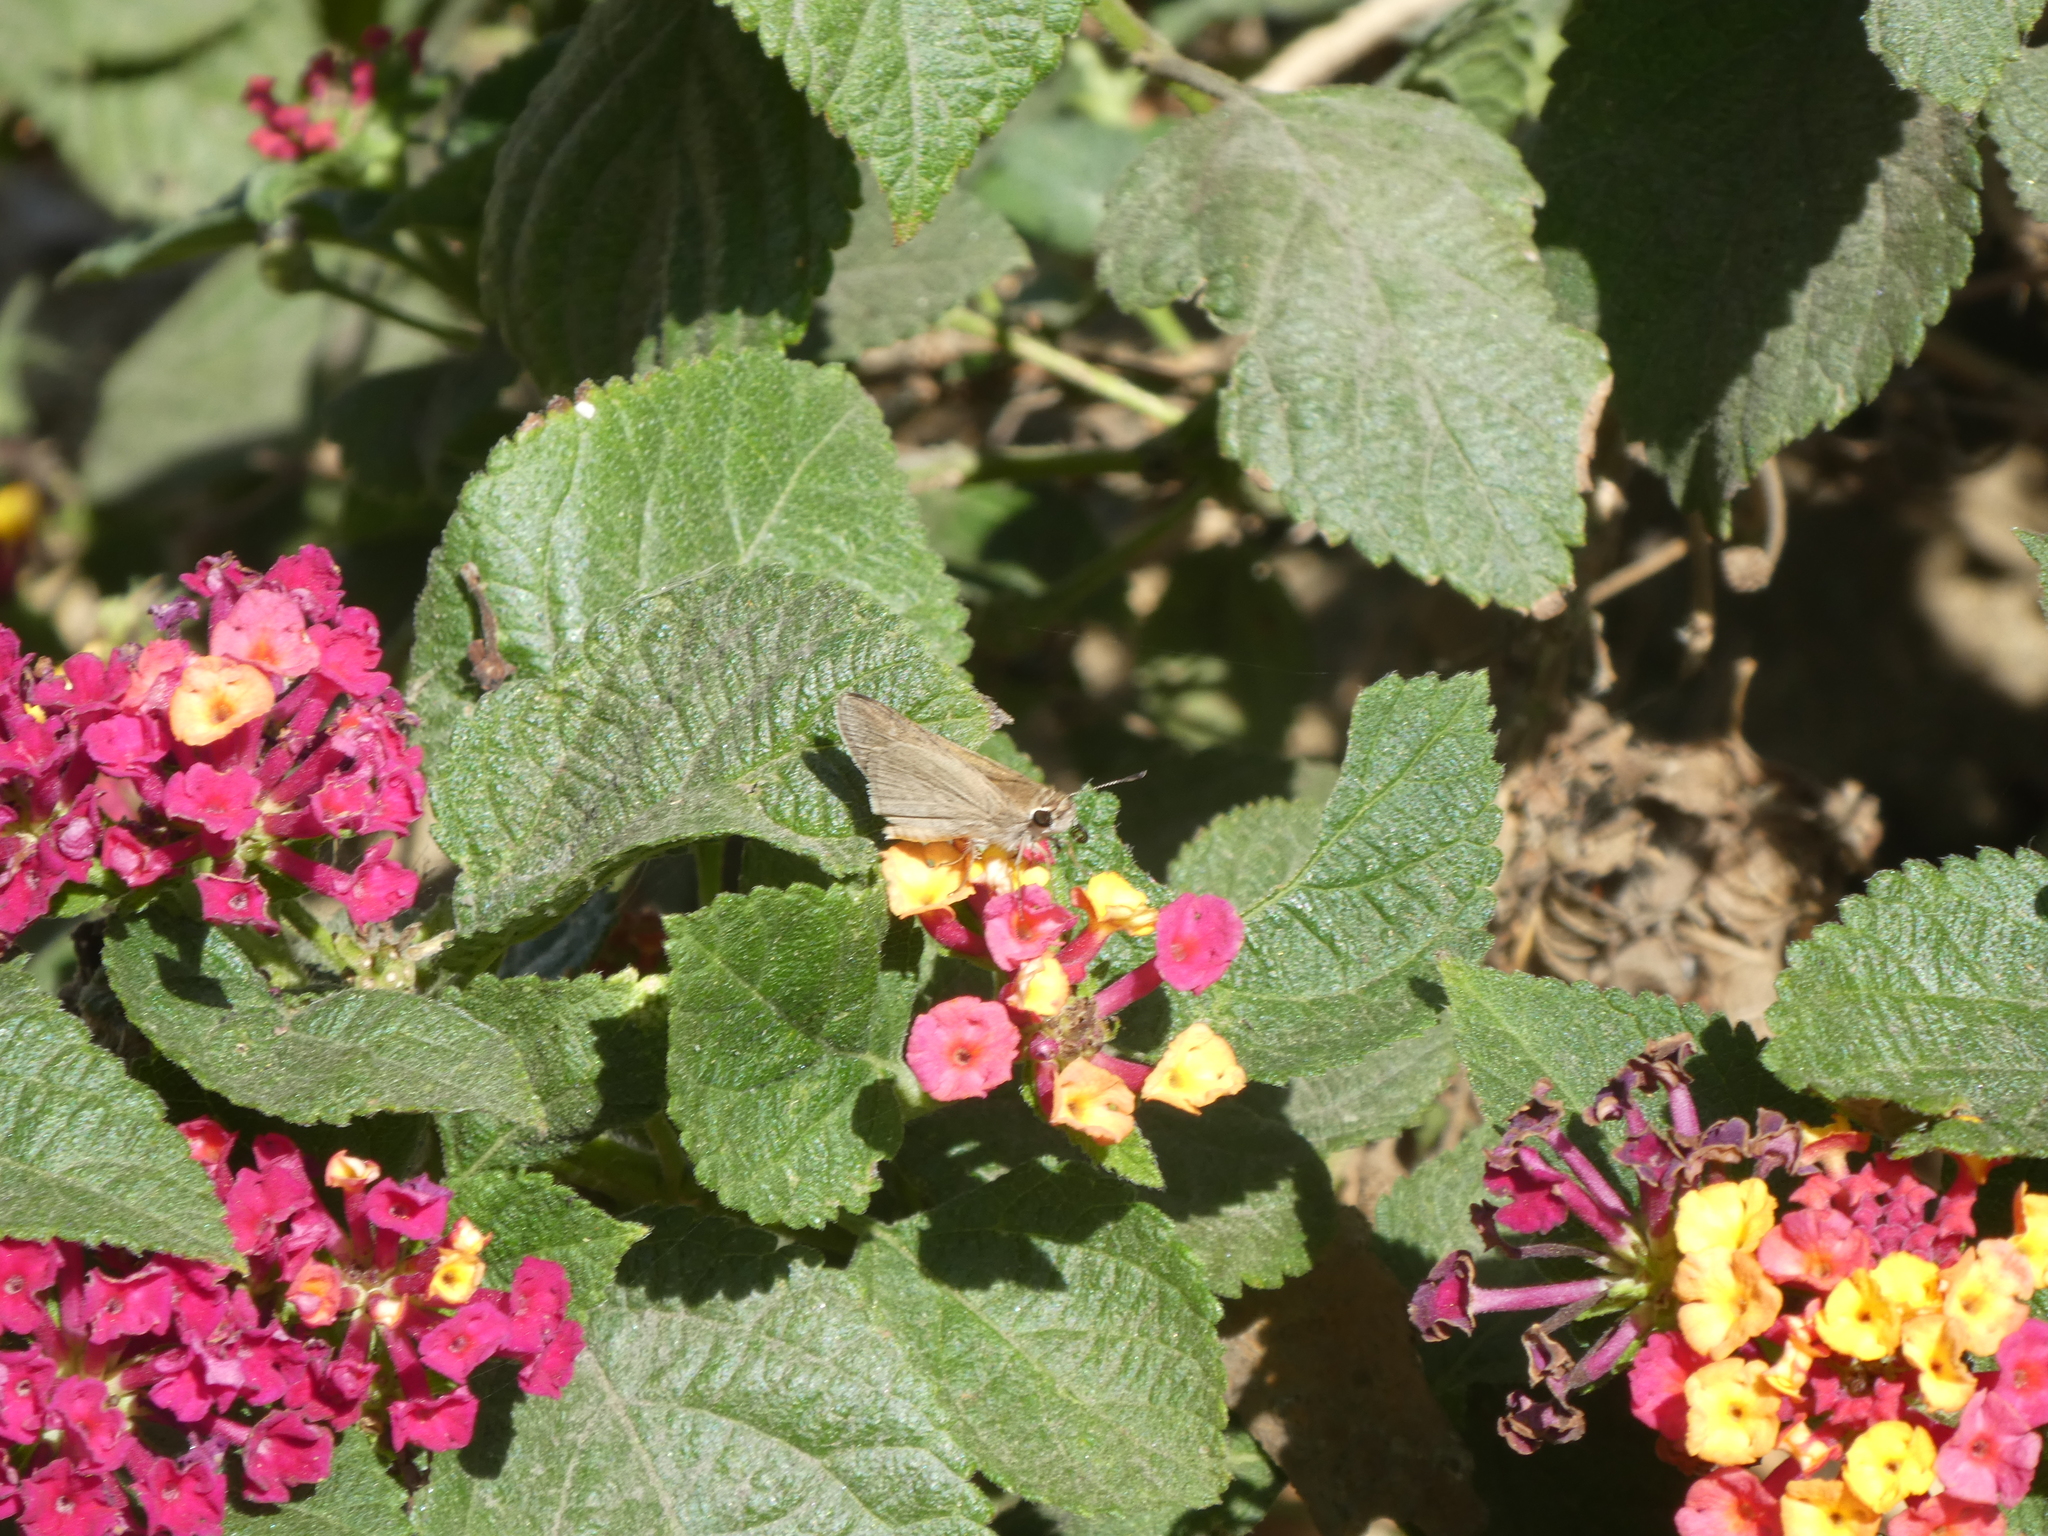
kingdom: Animalia
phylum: Arthropoda
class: Insecta
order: Lepidoptera
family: Hesperiidae
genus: Lerodea
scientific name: Lerodea eufala
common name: Eufala skipper
